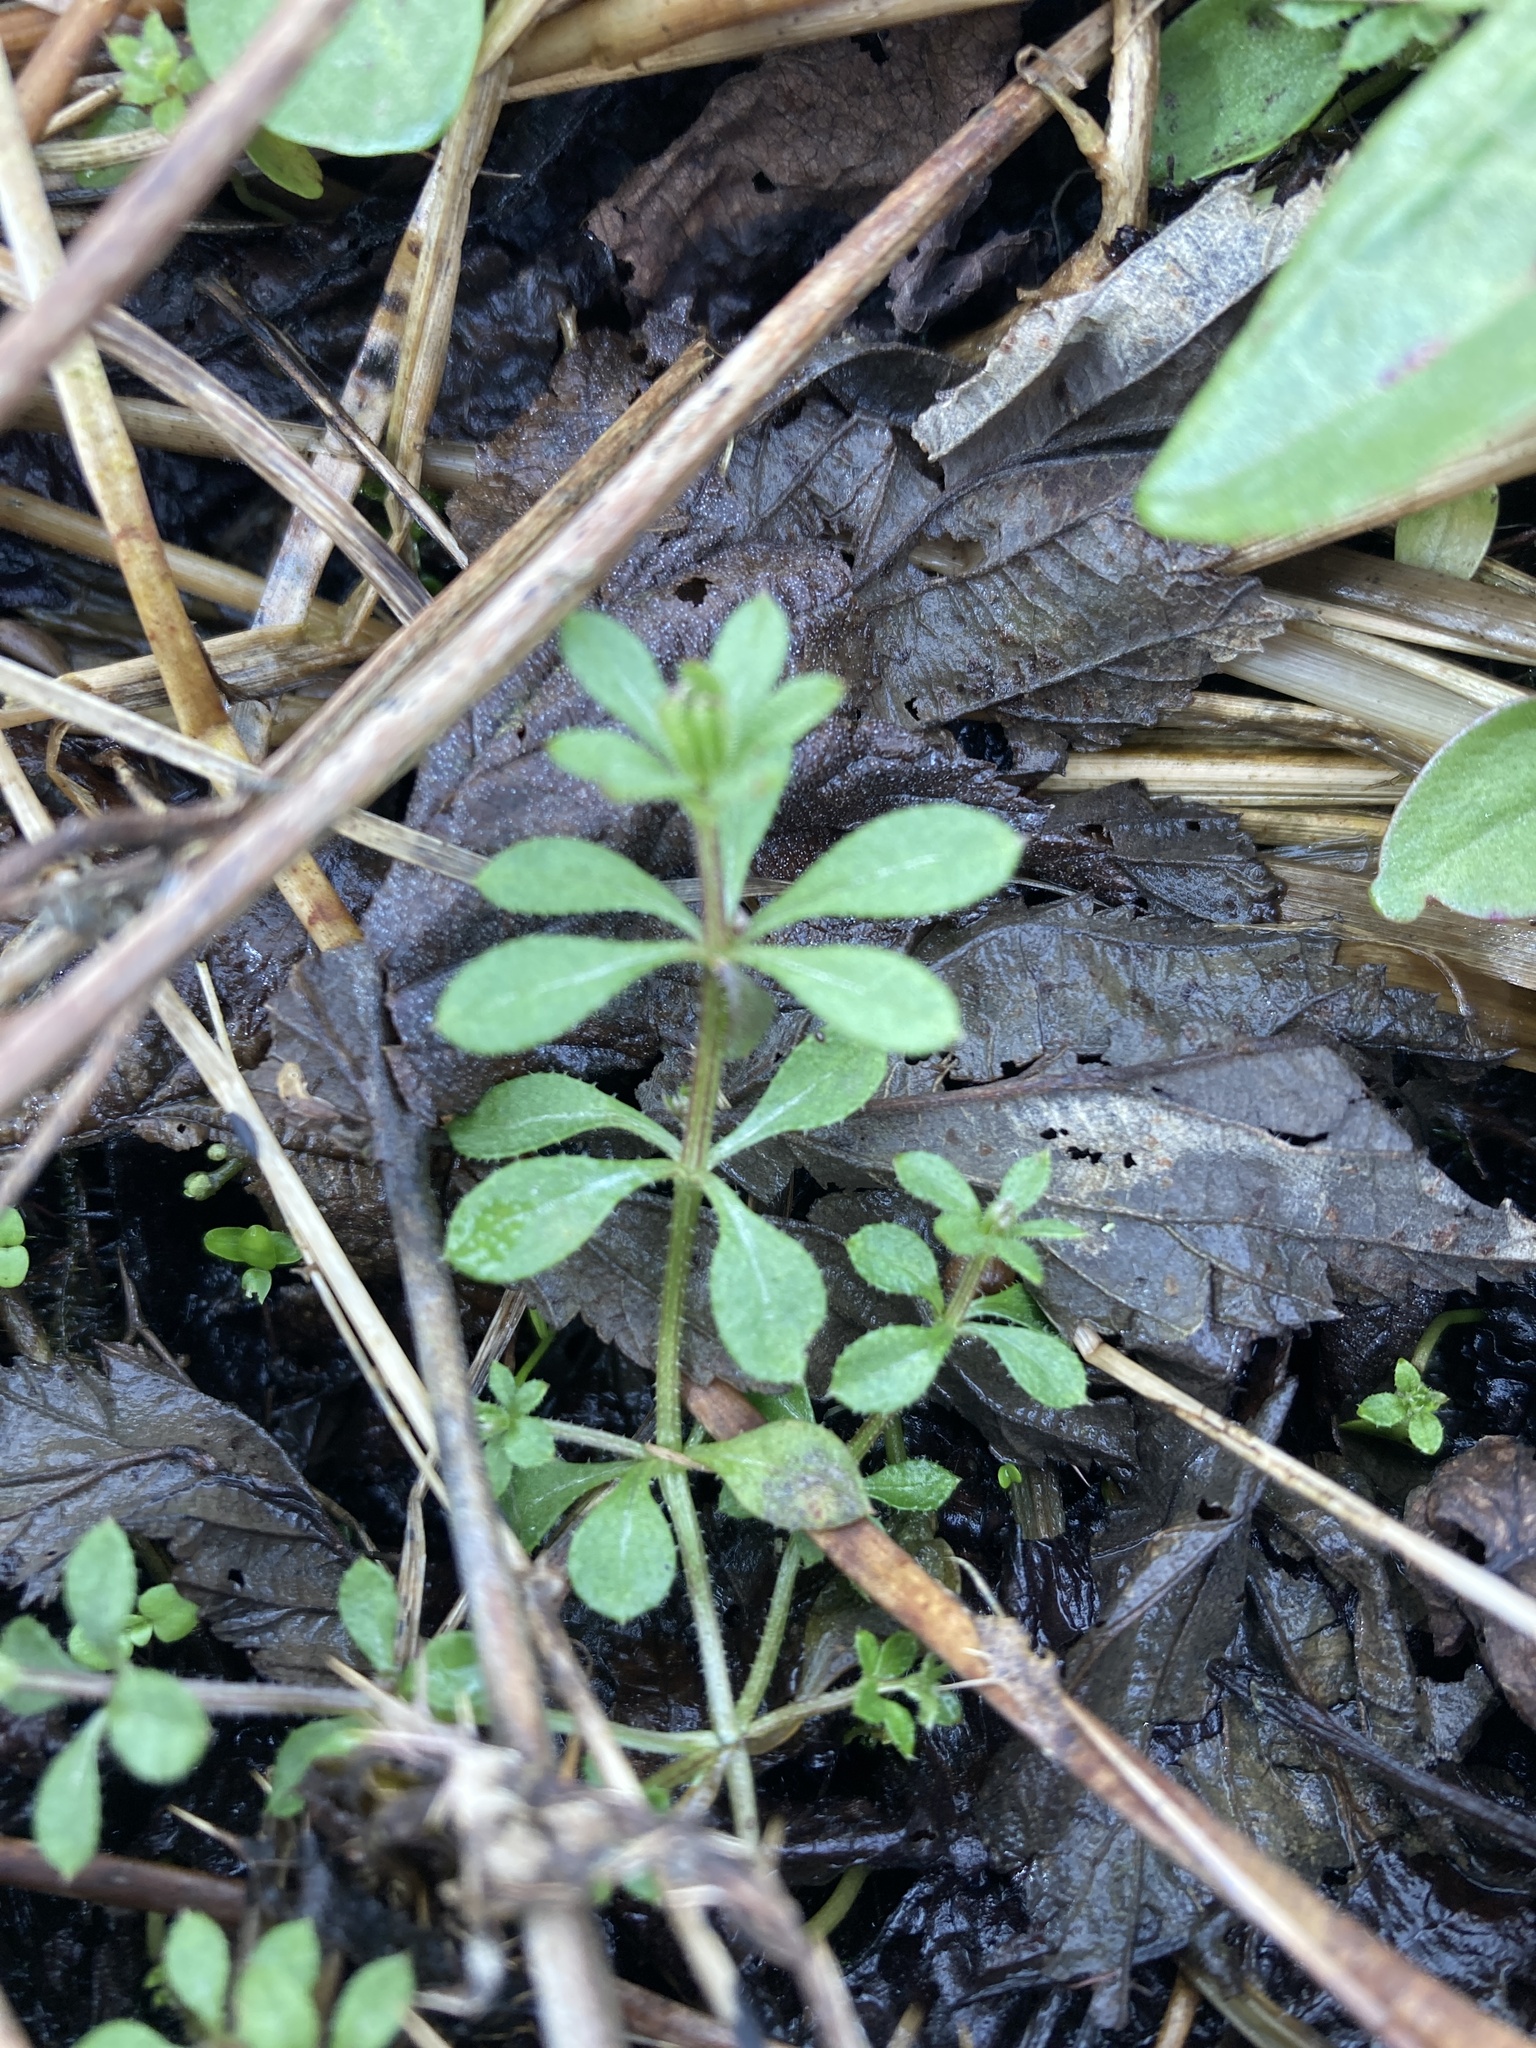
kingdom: Plantae
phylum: Tracheophyta
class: Magnoliopsida
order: Gentianales
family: Rubiaceae
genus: Galium
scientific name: Galium aparine
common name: Cleavers
